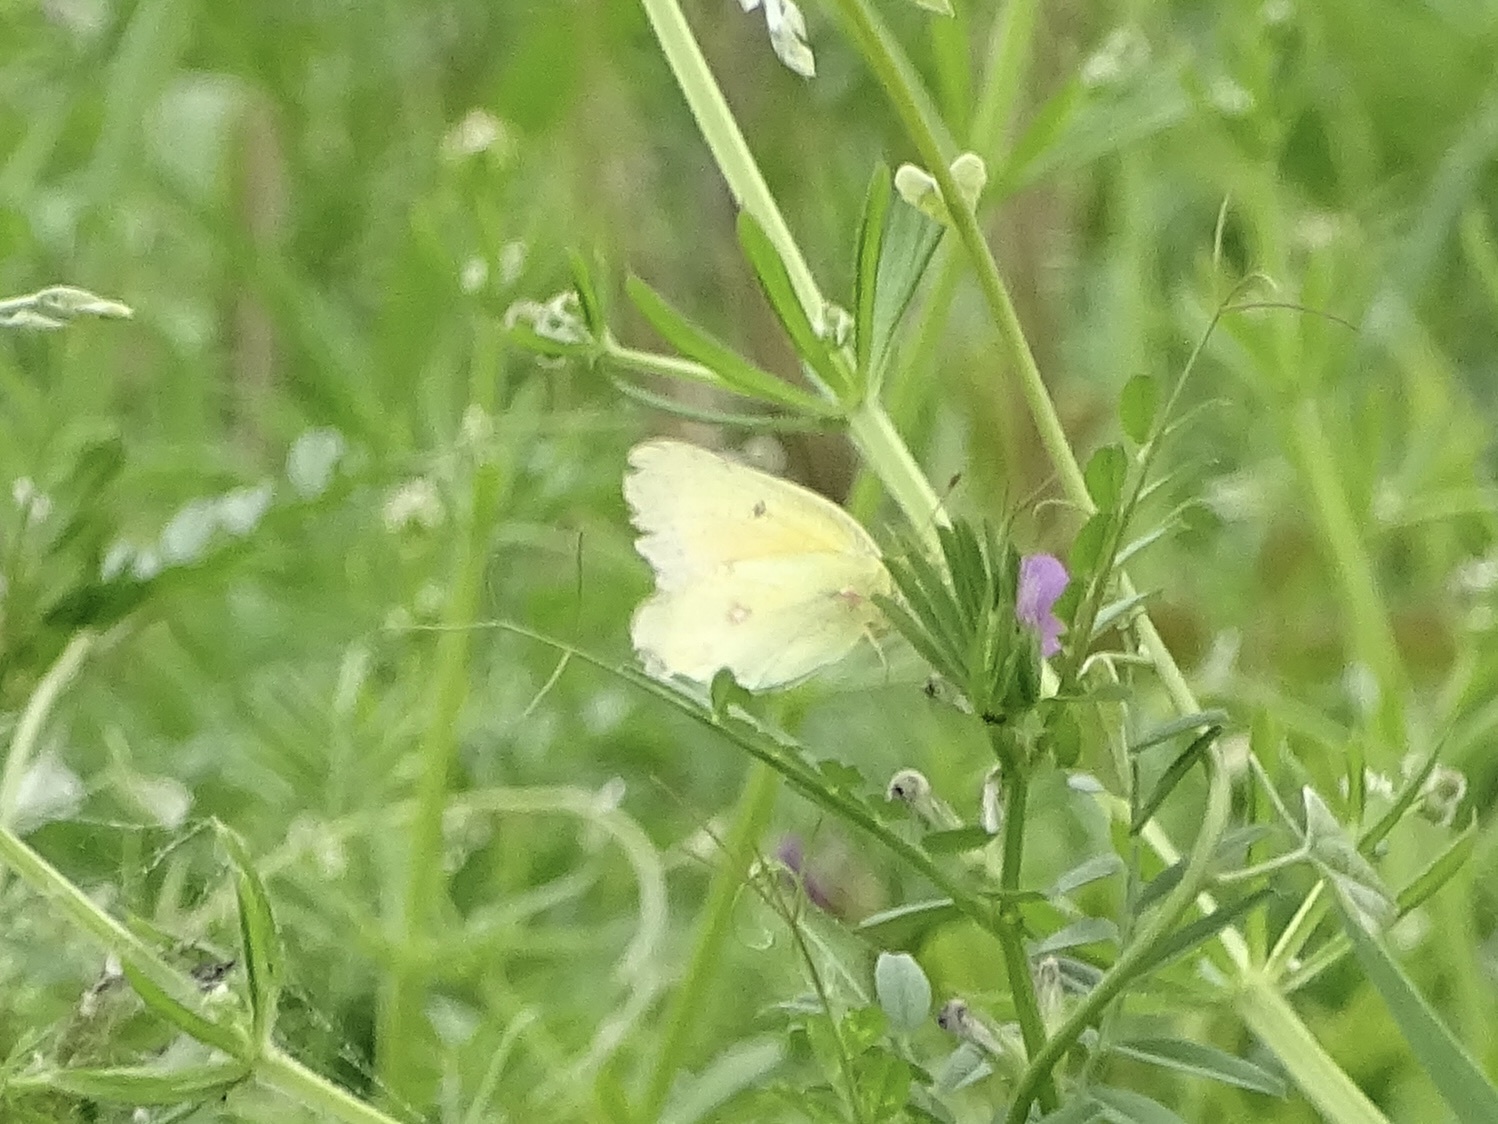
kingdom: Animalia
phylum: Arthropoda
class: Insecta
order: Lepidoptera
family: Pieridae
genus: Colias
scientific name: Colias eurytheme
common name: Alfalfa butterfly
